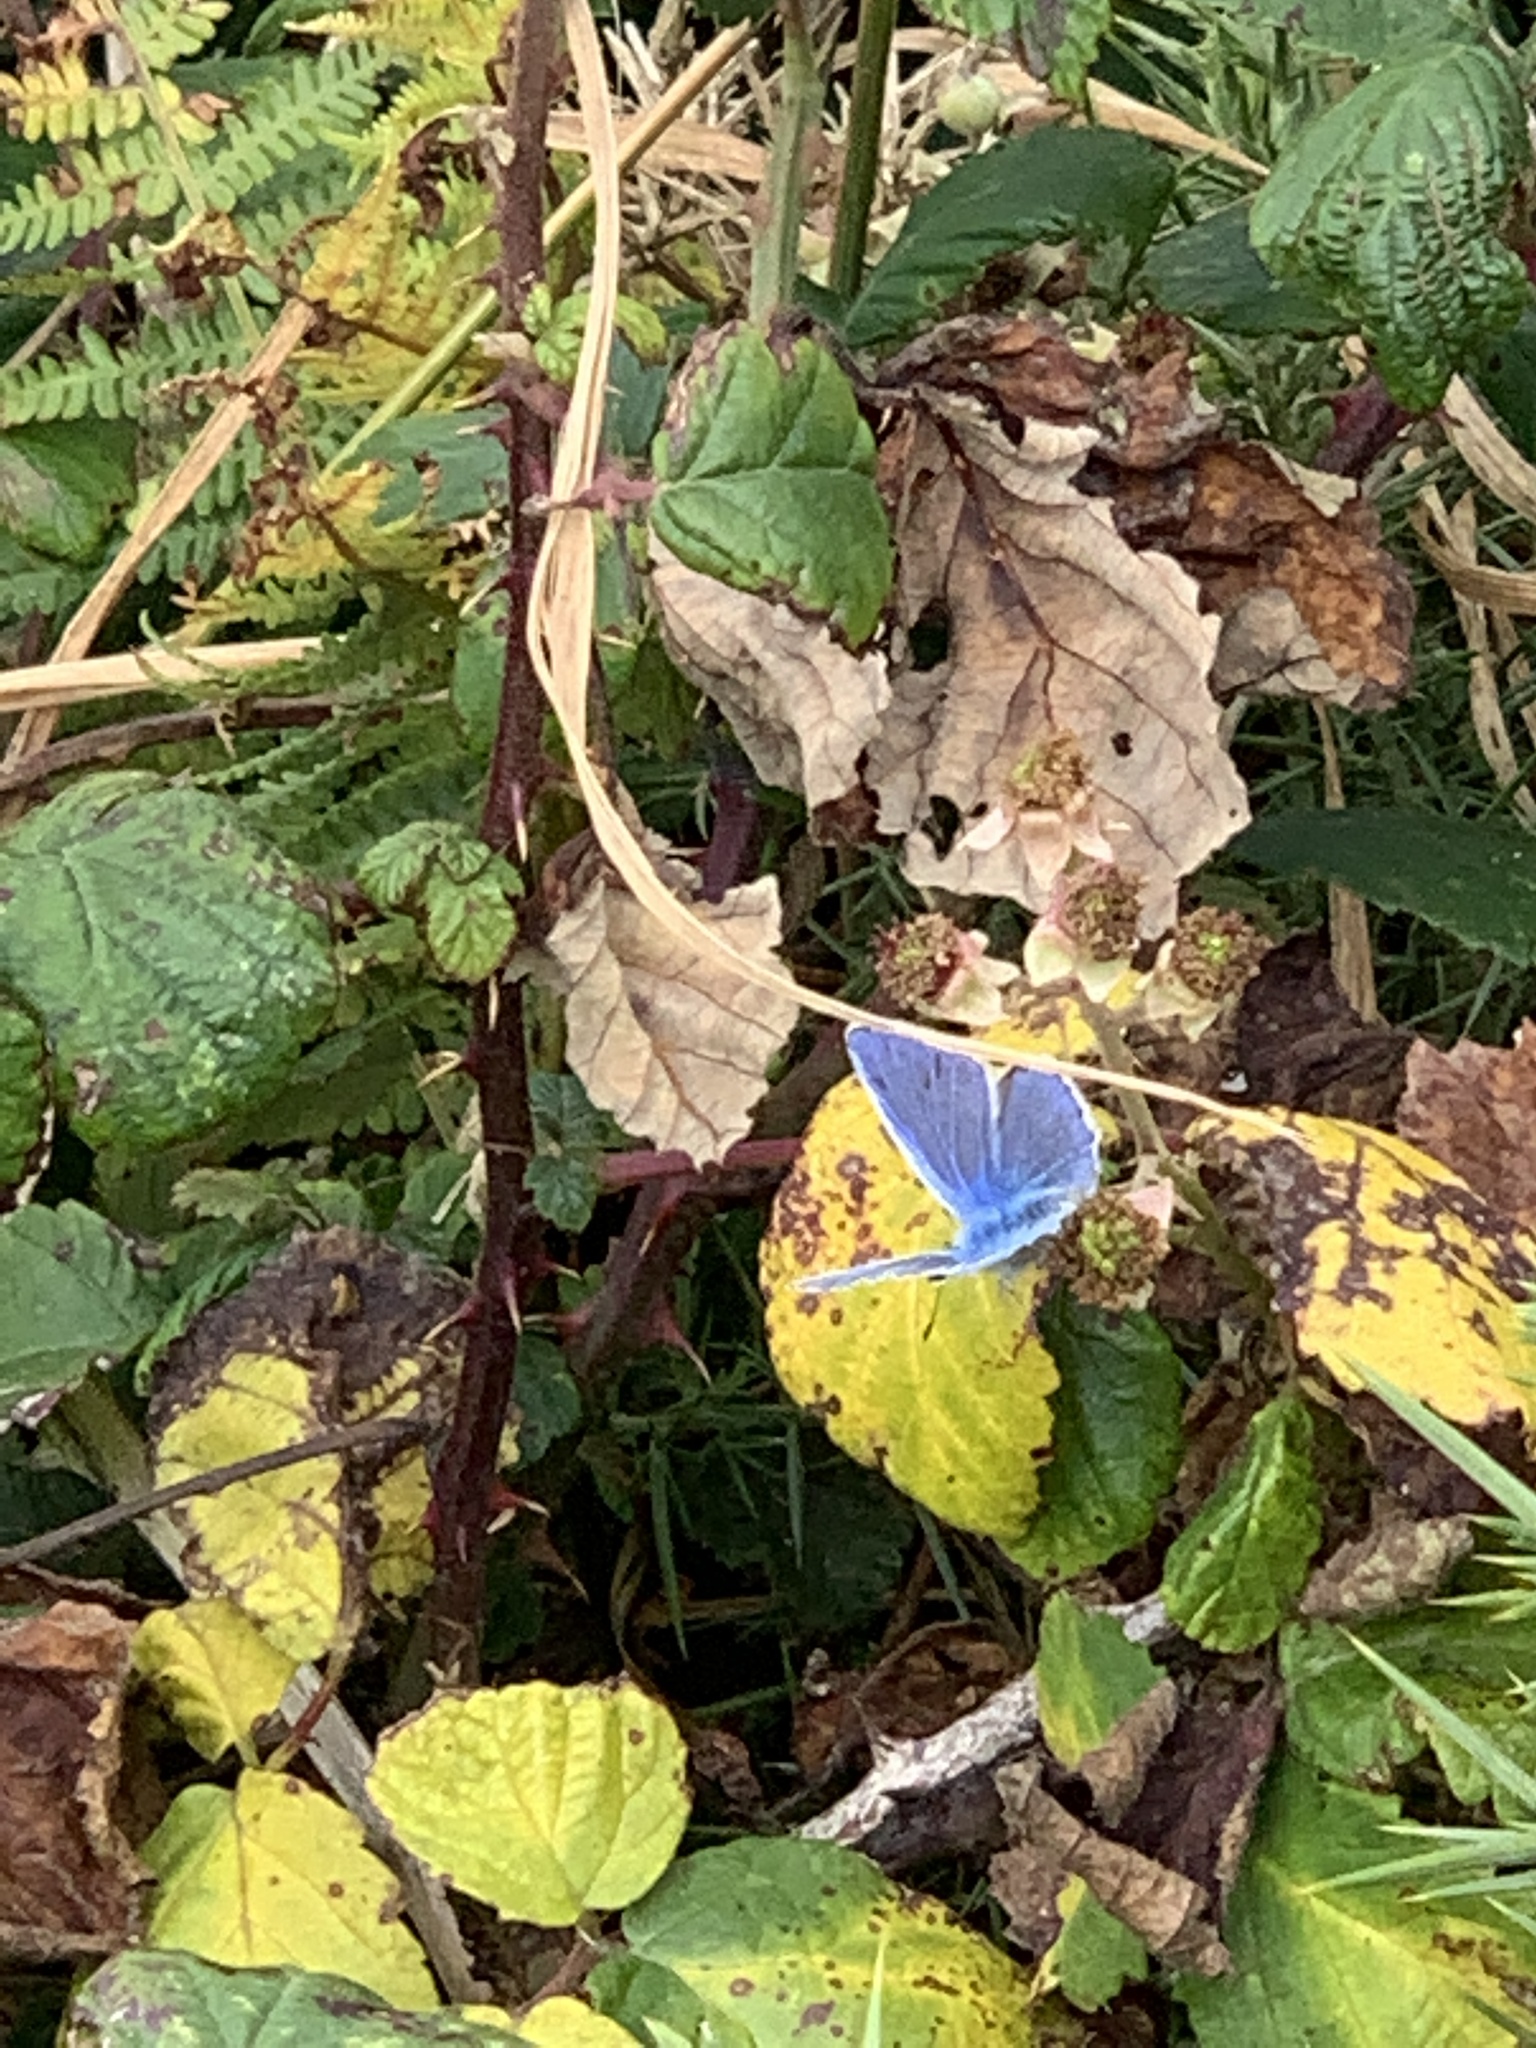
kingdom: Animalia
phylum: Arthropoda
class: Insecta
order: Lepidoptera
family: Lycaenidae
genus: Polyommatus
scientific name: Polyommatus icarus
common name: Common blue
